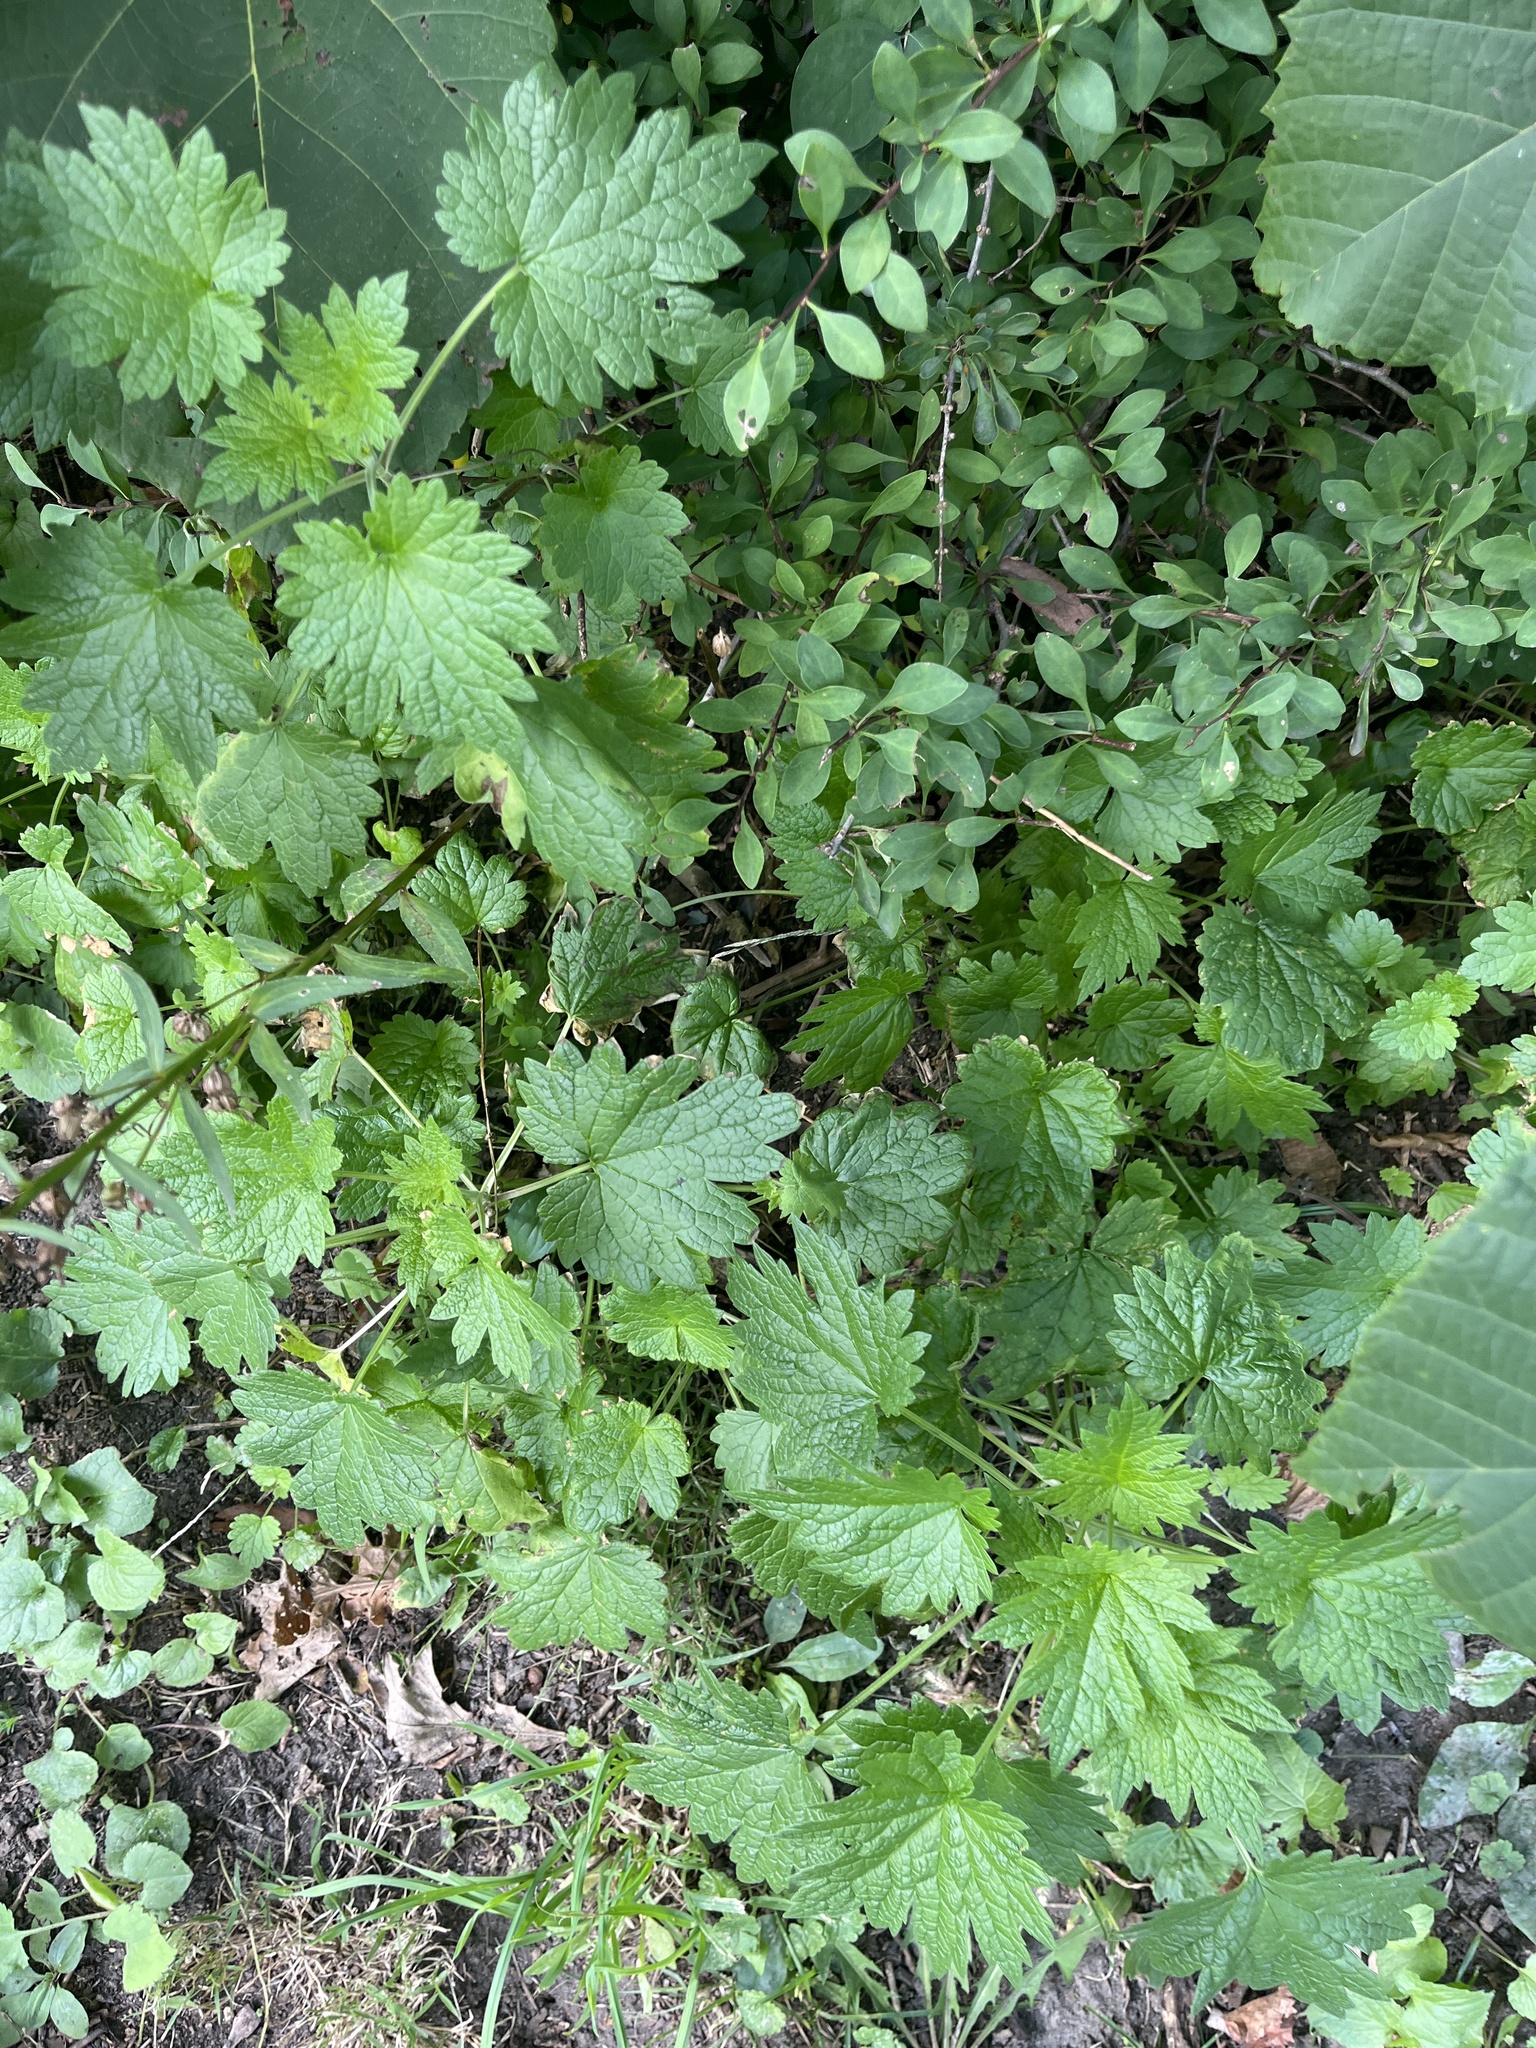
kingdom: Plantae
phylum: Tracheophyta
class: Magnoliopsida
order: Lamiales
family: Lamiaceae
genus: Leonurus
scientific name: Leonurus cardiaca
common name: Motherwort
